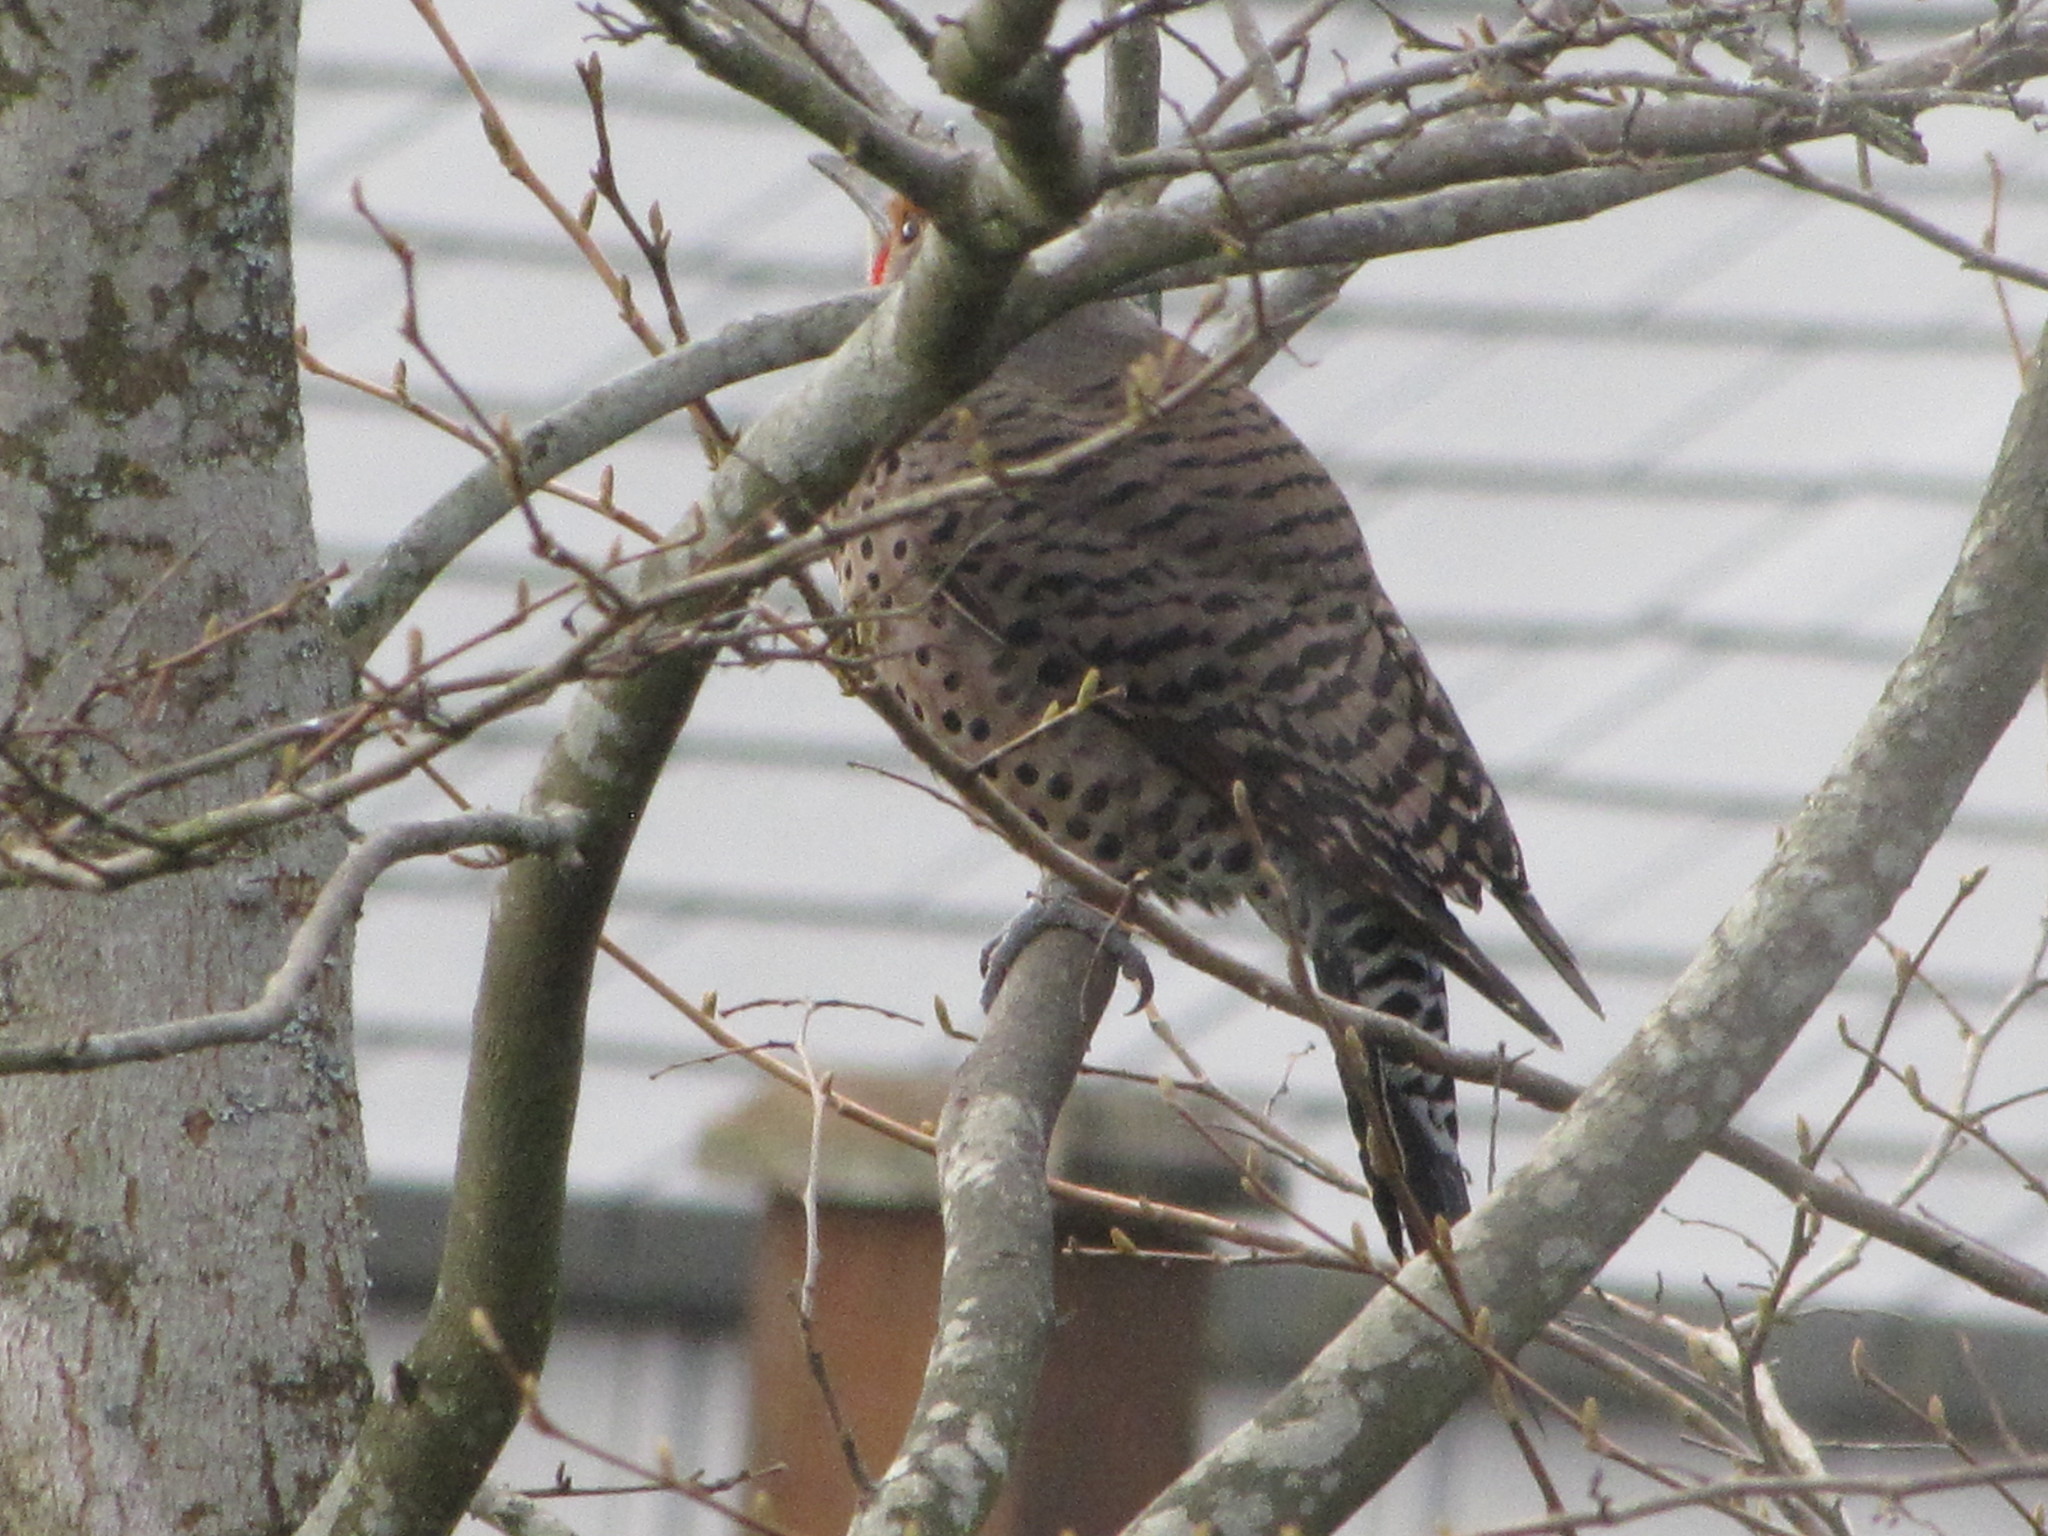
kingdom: Animalia
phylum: Chordata
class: Aves
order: Piciformes
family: Picidae
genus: Colaptes
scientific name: Colaptes auratus
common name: Northern flicker
